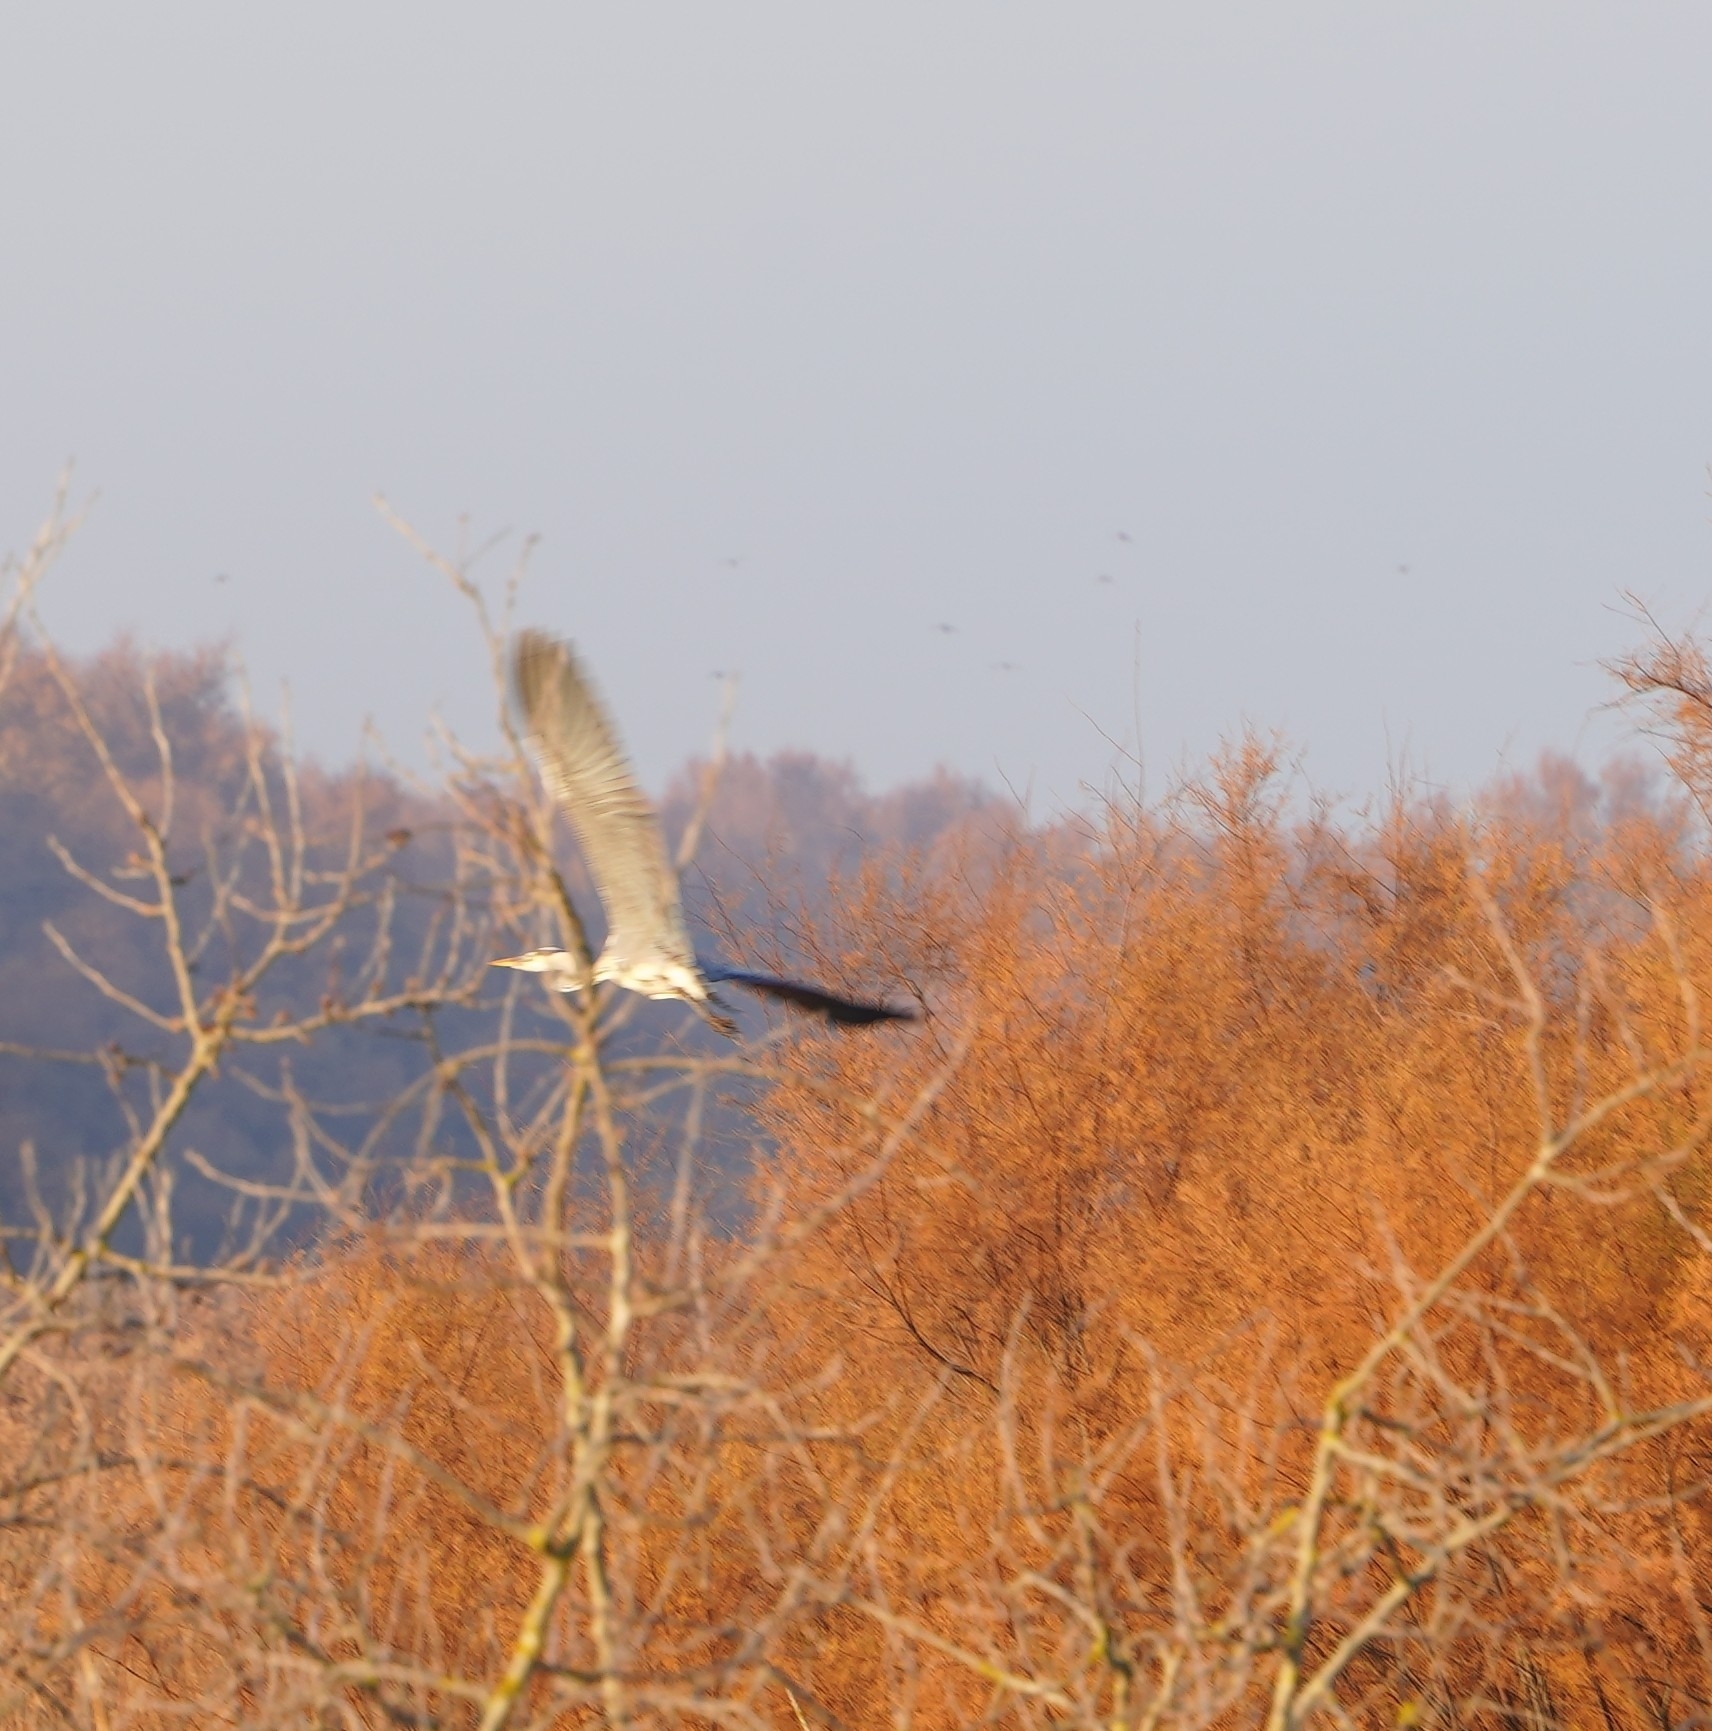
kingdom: Animalia
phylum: Chordata
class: Aves
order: Pelecaniformes
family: Ardeidae
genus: Ardea
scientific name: Ardea cinerea
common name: Grey heron
